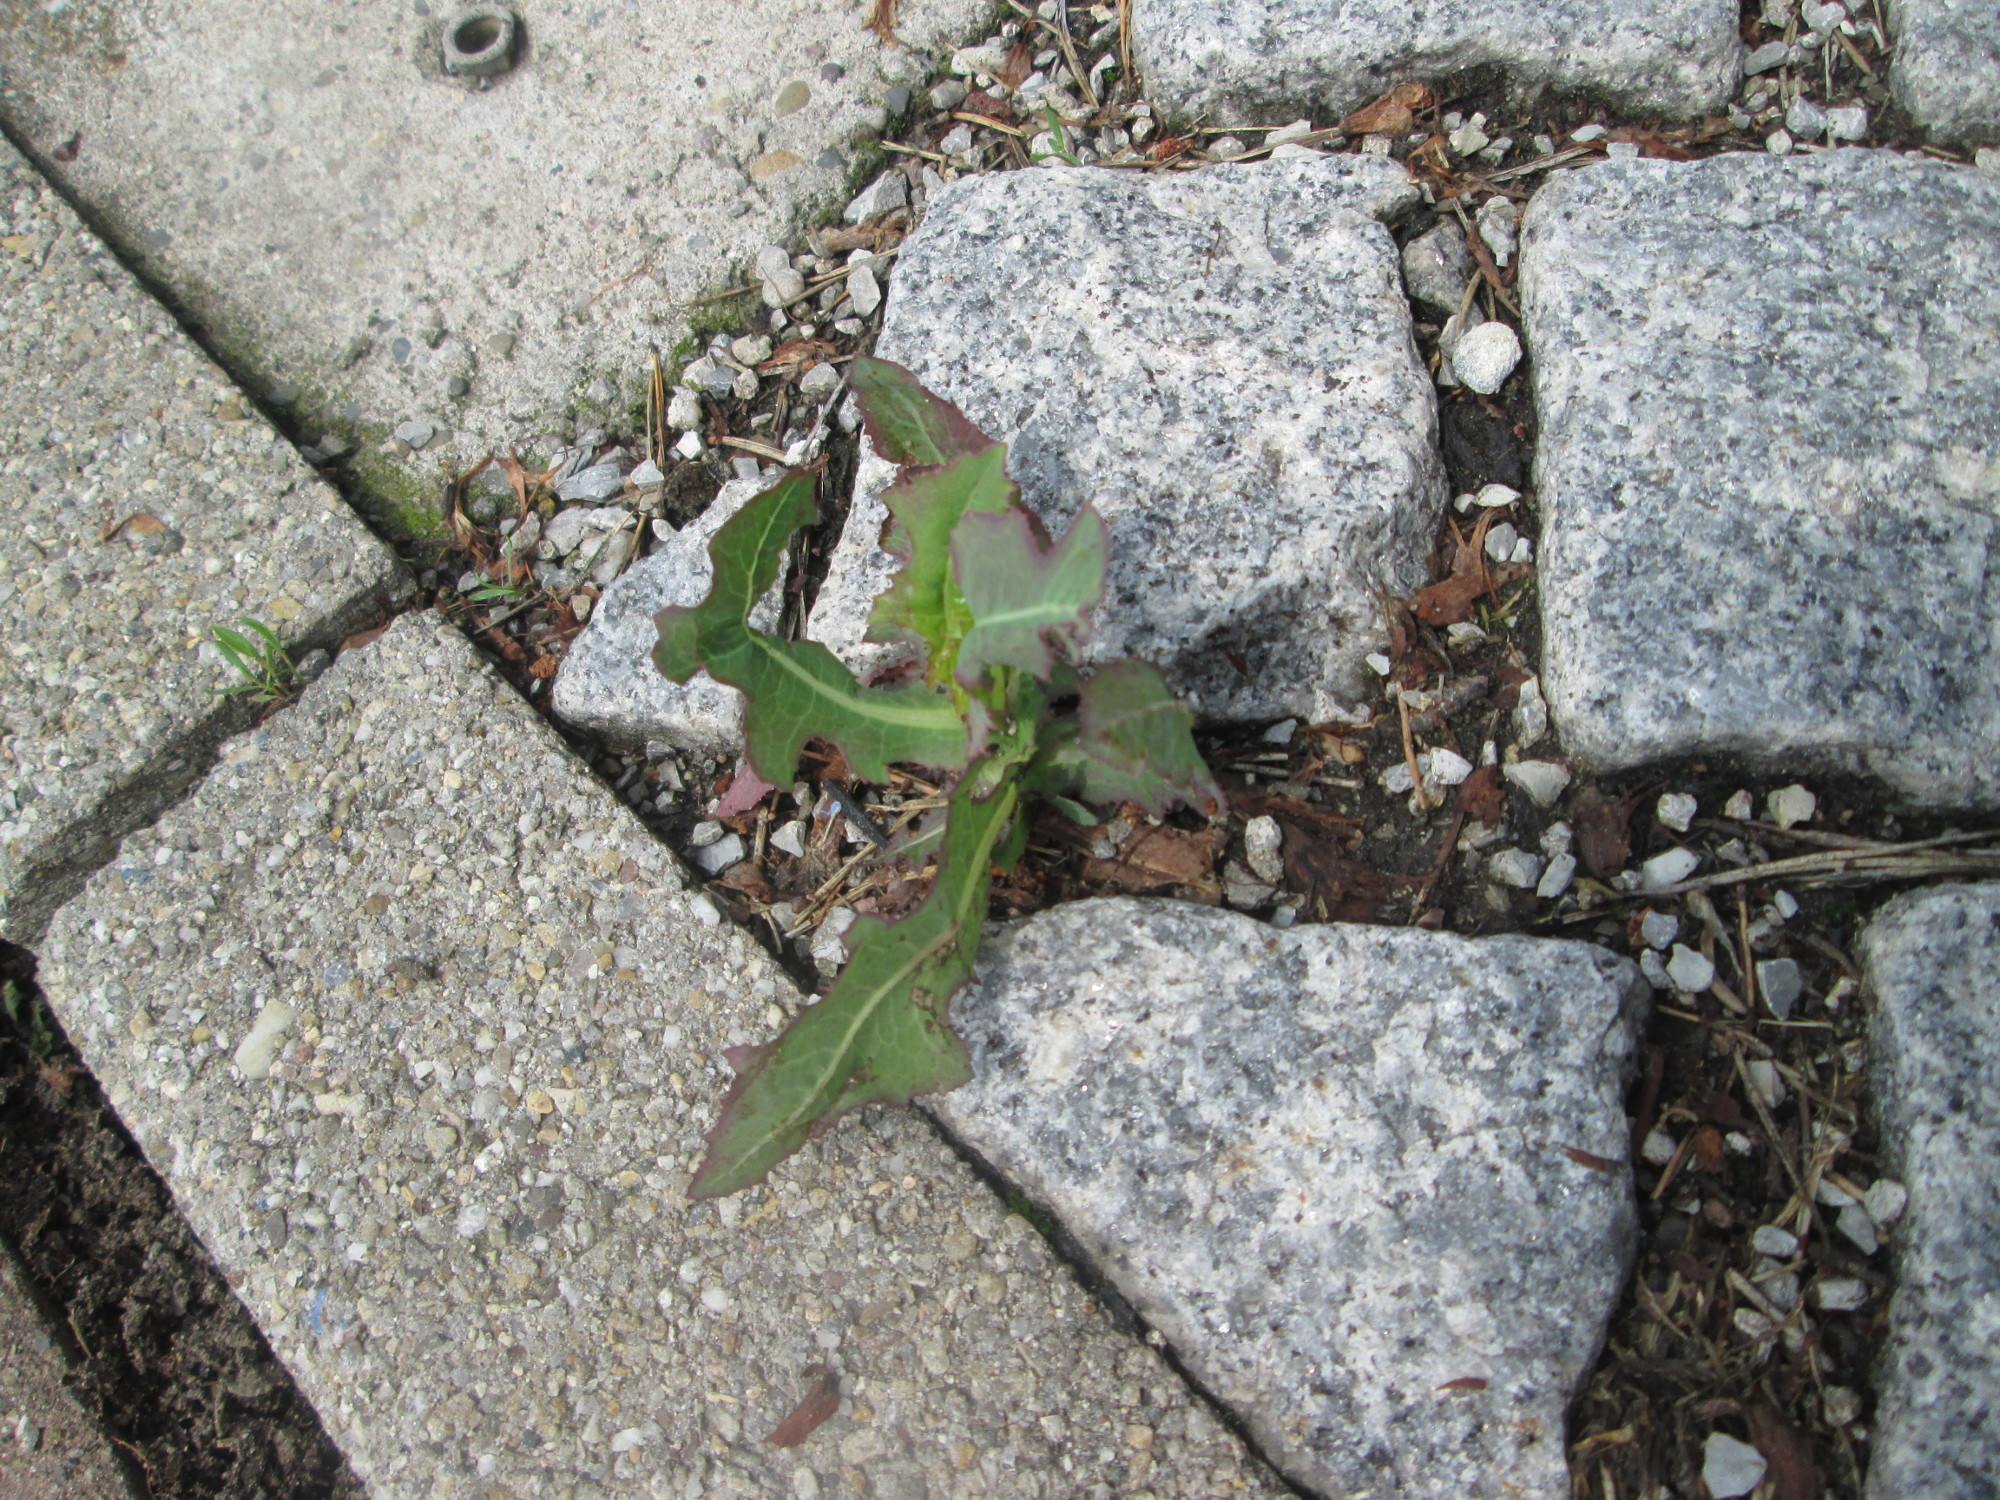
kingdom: Plantae
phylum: Tracheophyta
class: Magnoliopsida
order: Asterales
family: Asteraceae
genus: Lactuca
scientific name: Lactuca serriola
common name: Prickly lettuce
